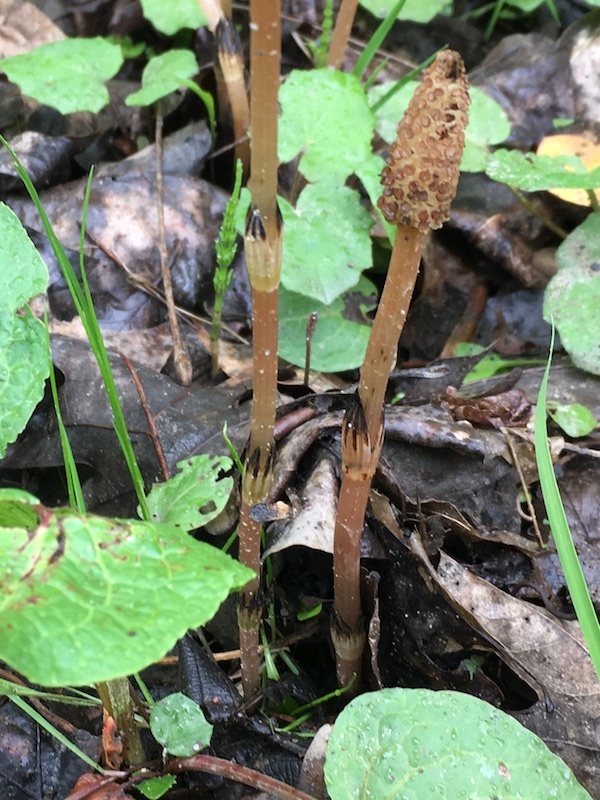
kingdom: Plantae
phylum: Tracheophyta
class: Polypodiopsida
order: Equisetales
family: Equisetaceae
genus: Equisetum
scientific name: Equisetum arvense
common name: Field horsetail
